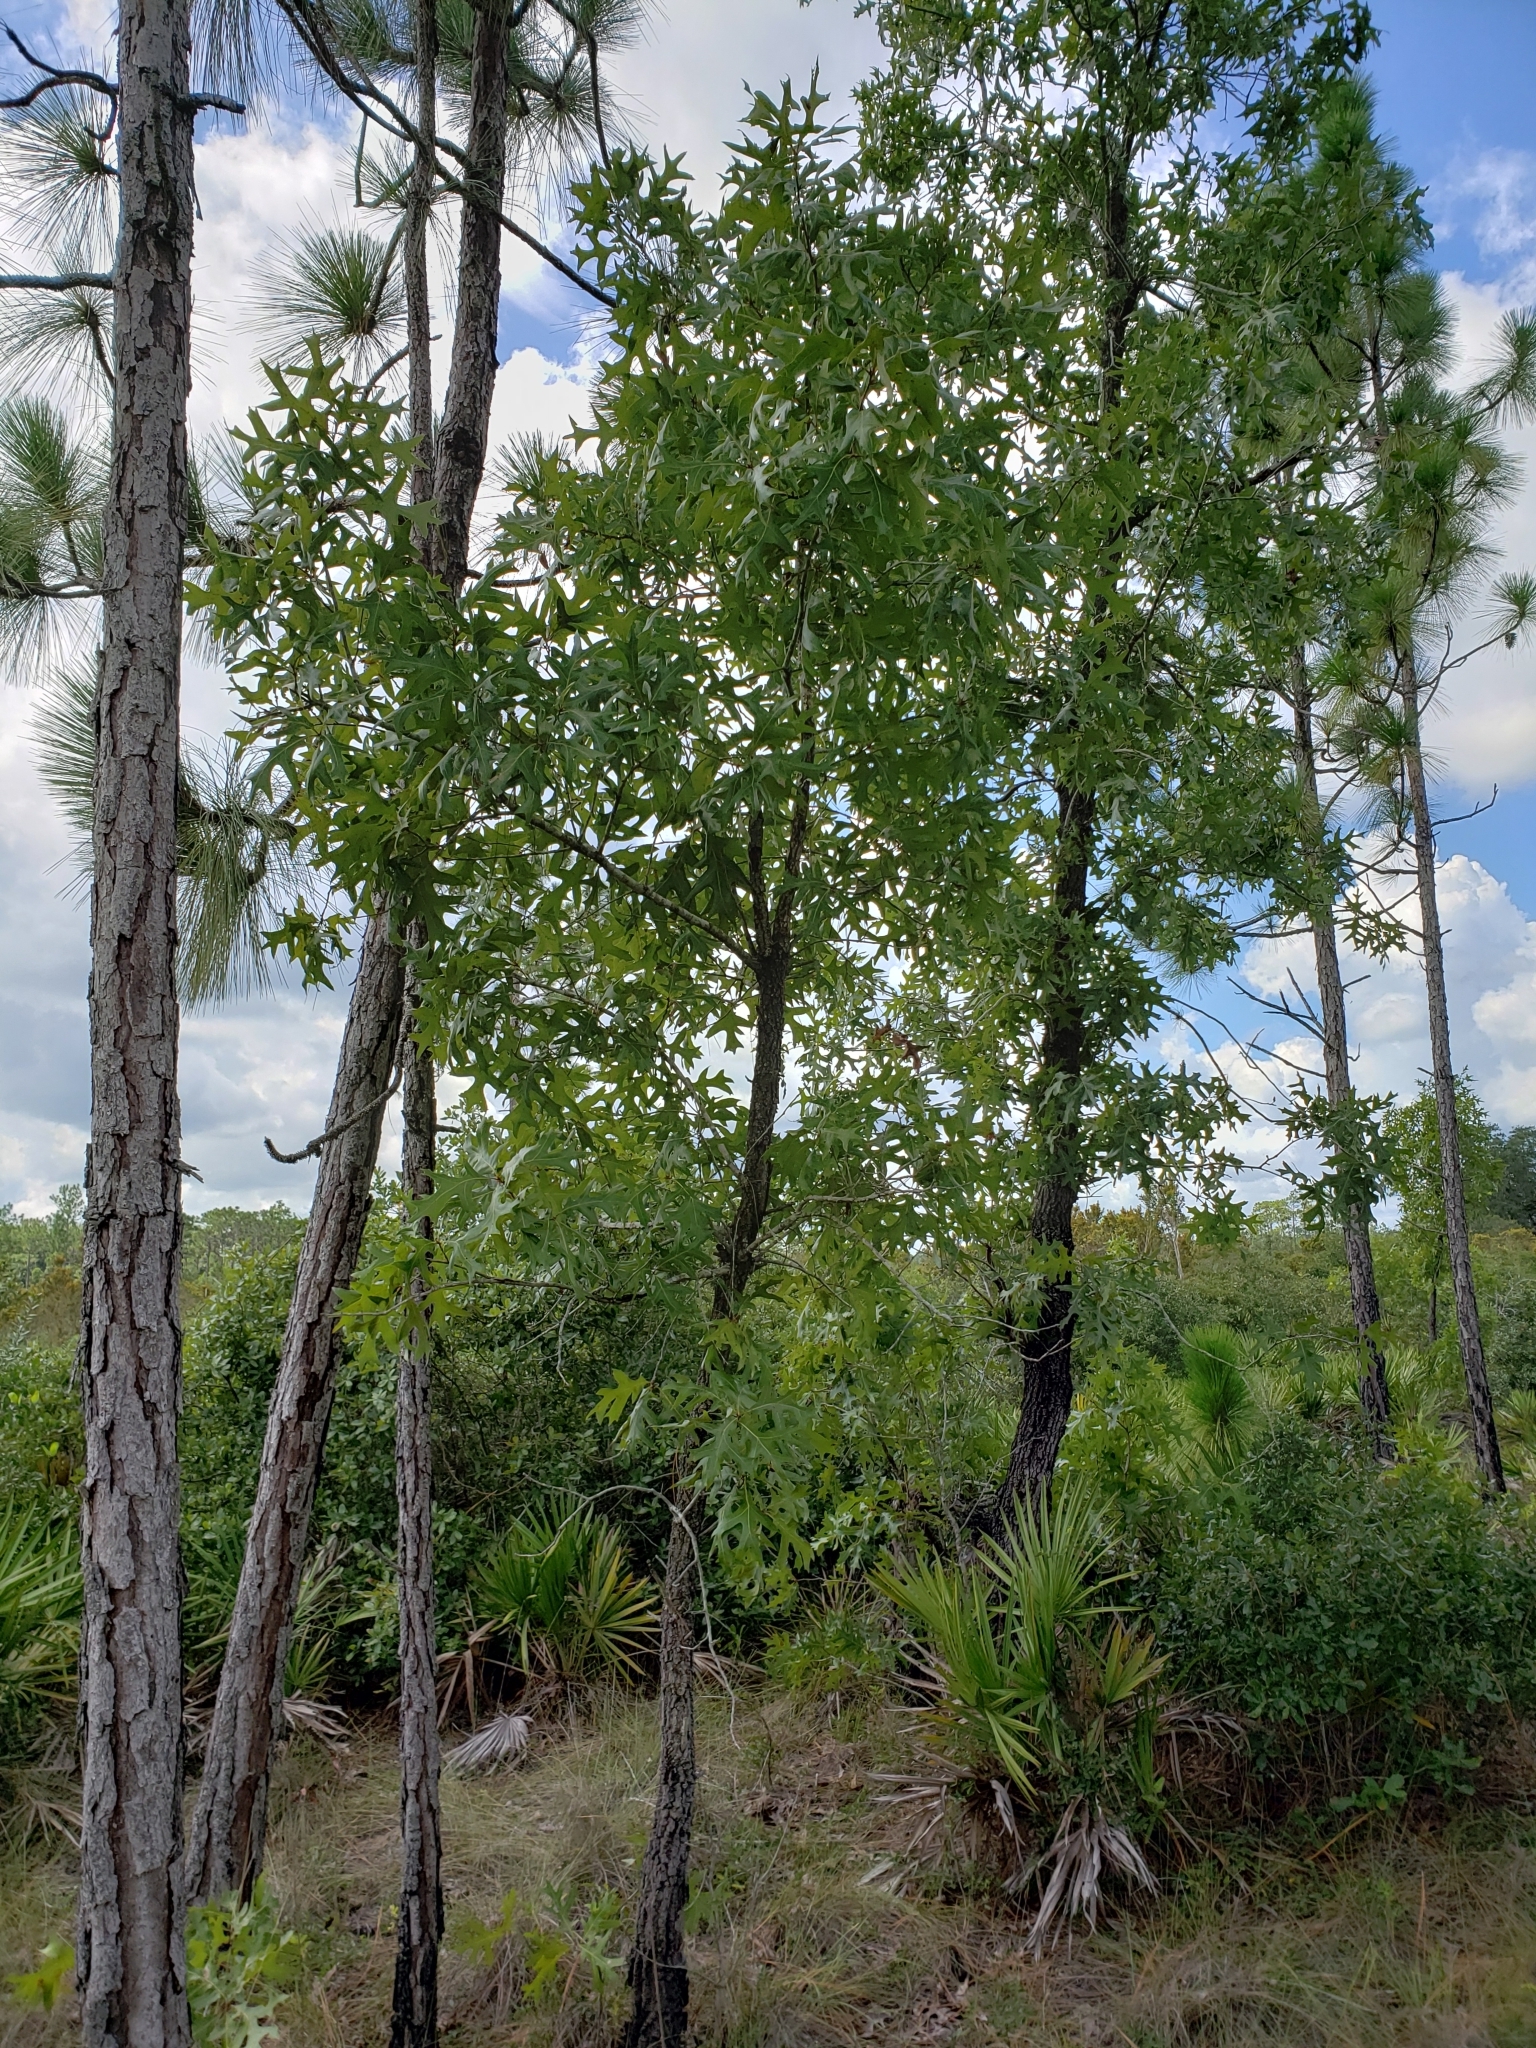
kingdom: Plantae
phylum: Tracheophyta
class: Magnoliopsida
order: Fagales
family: Fagaceae
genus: Quercus
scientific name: Quercus laevis
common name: Turkey oak
